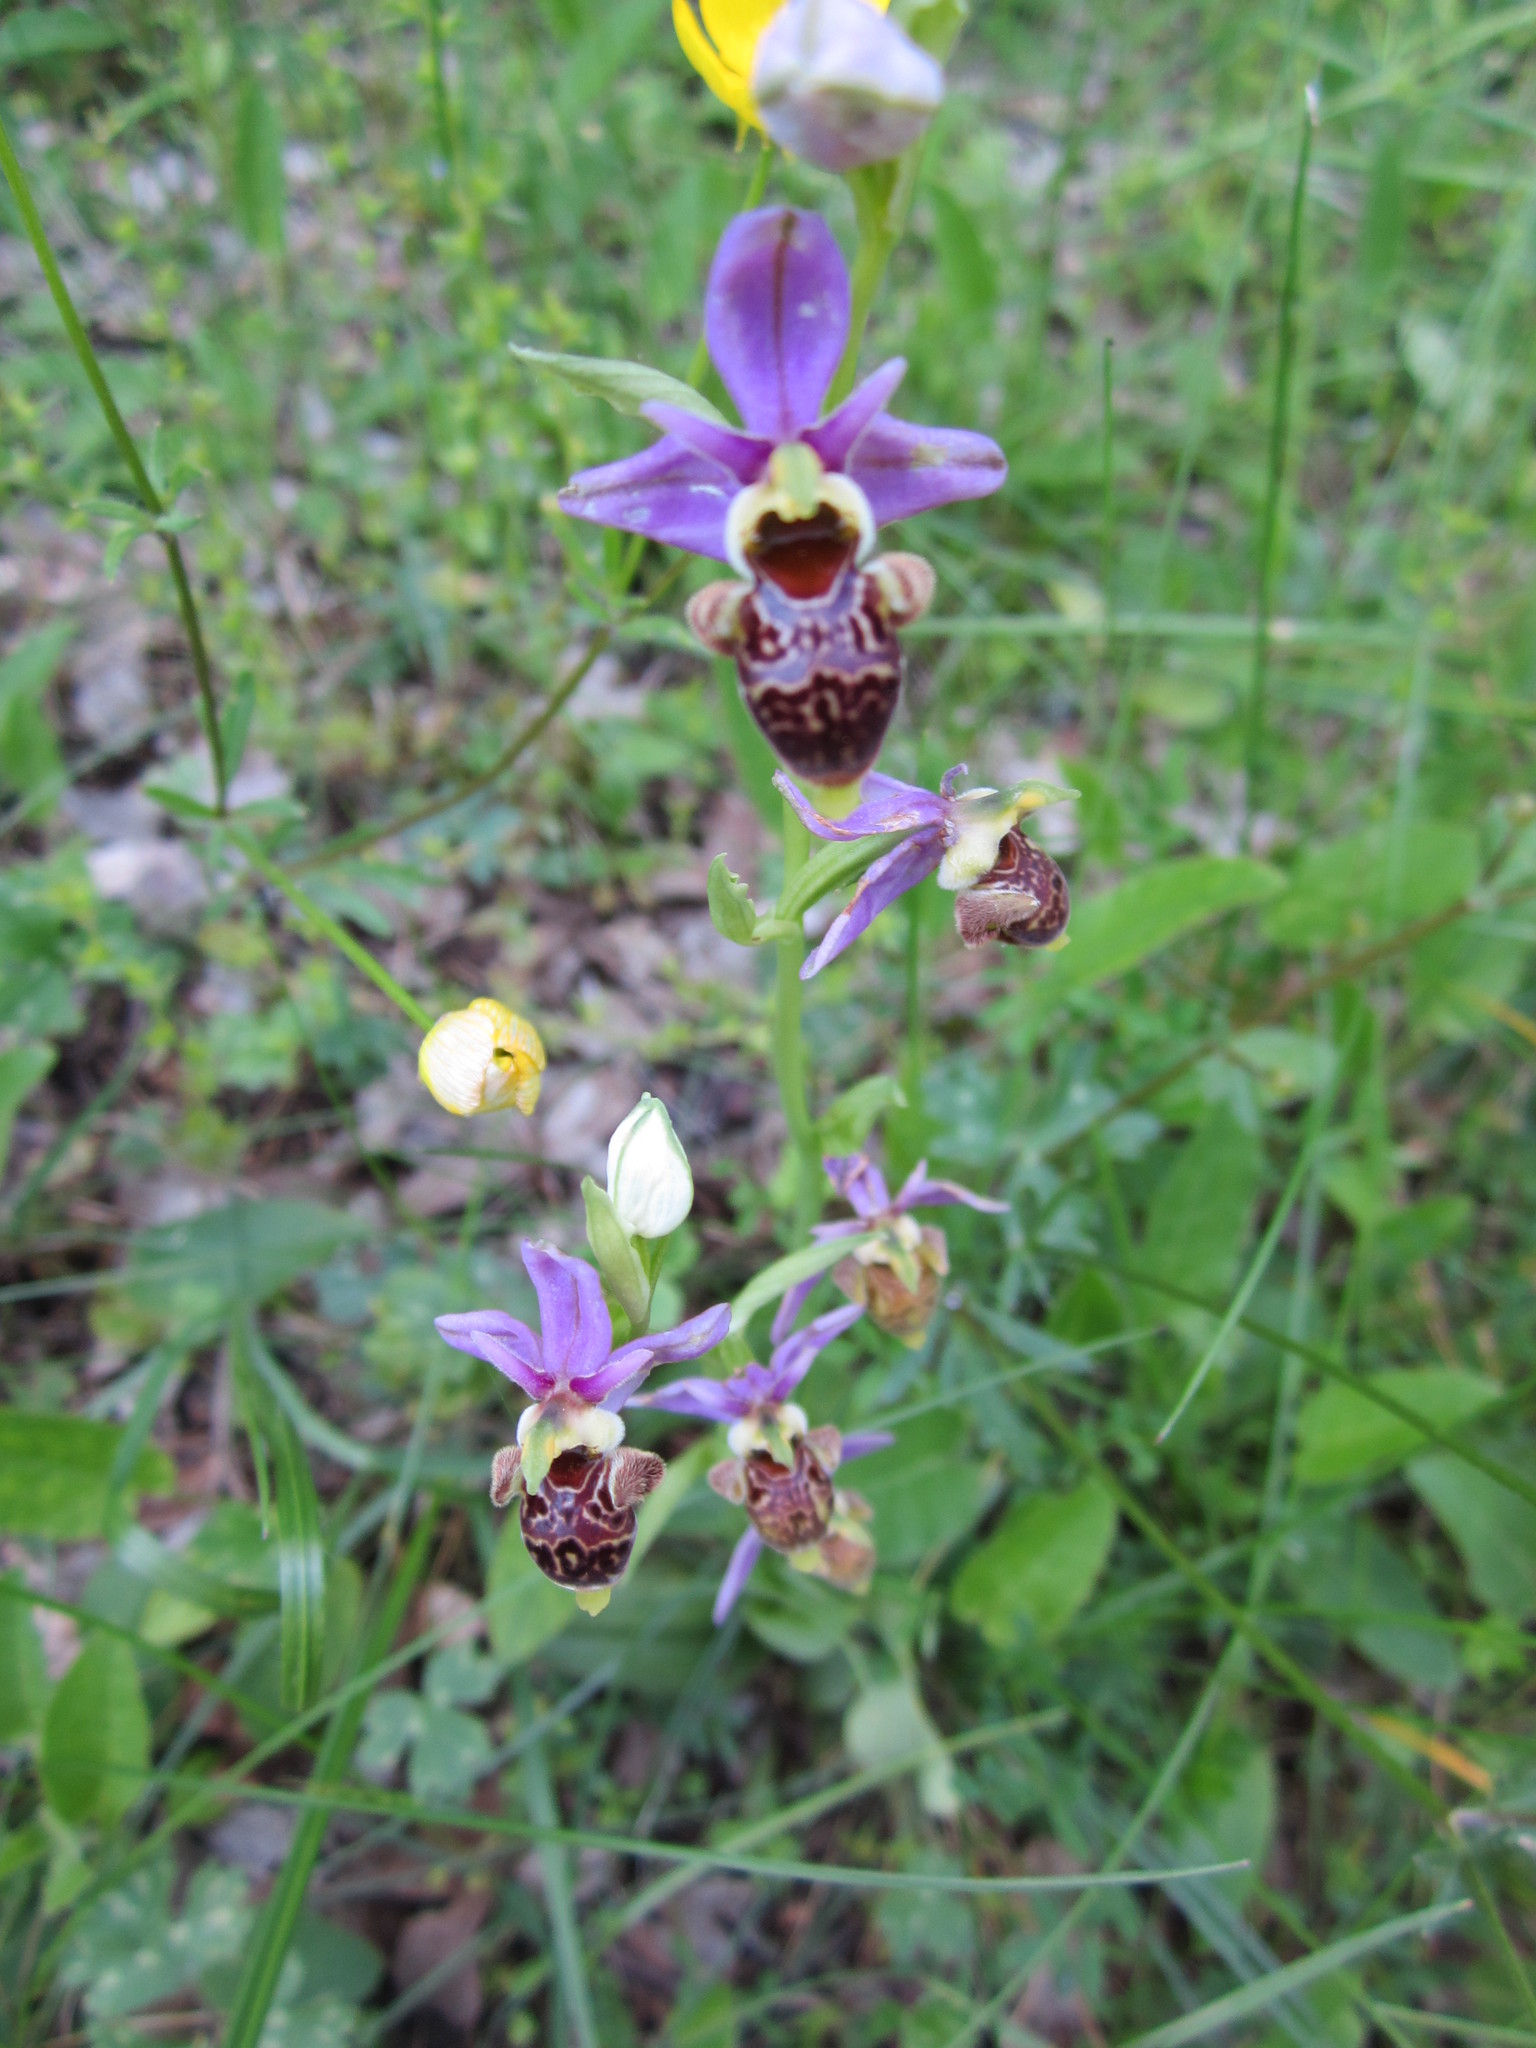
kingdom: Plantae
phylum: Tracheophyta
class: Liliopsida
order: Asparagales
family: Orchidaceae
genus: Ophrys
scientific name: Ophrys scolopax
